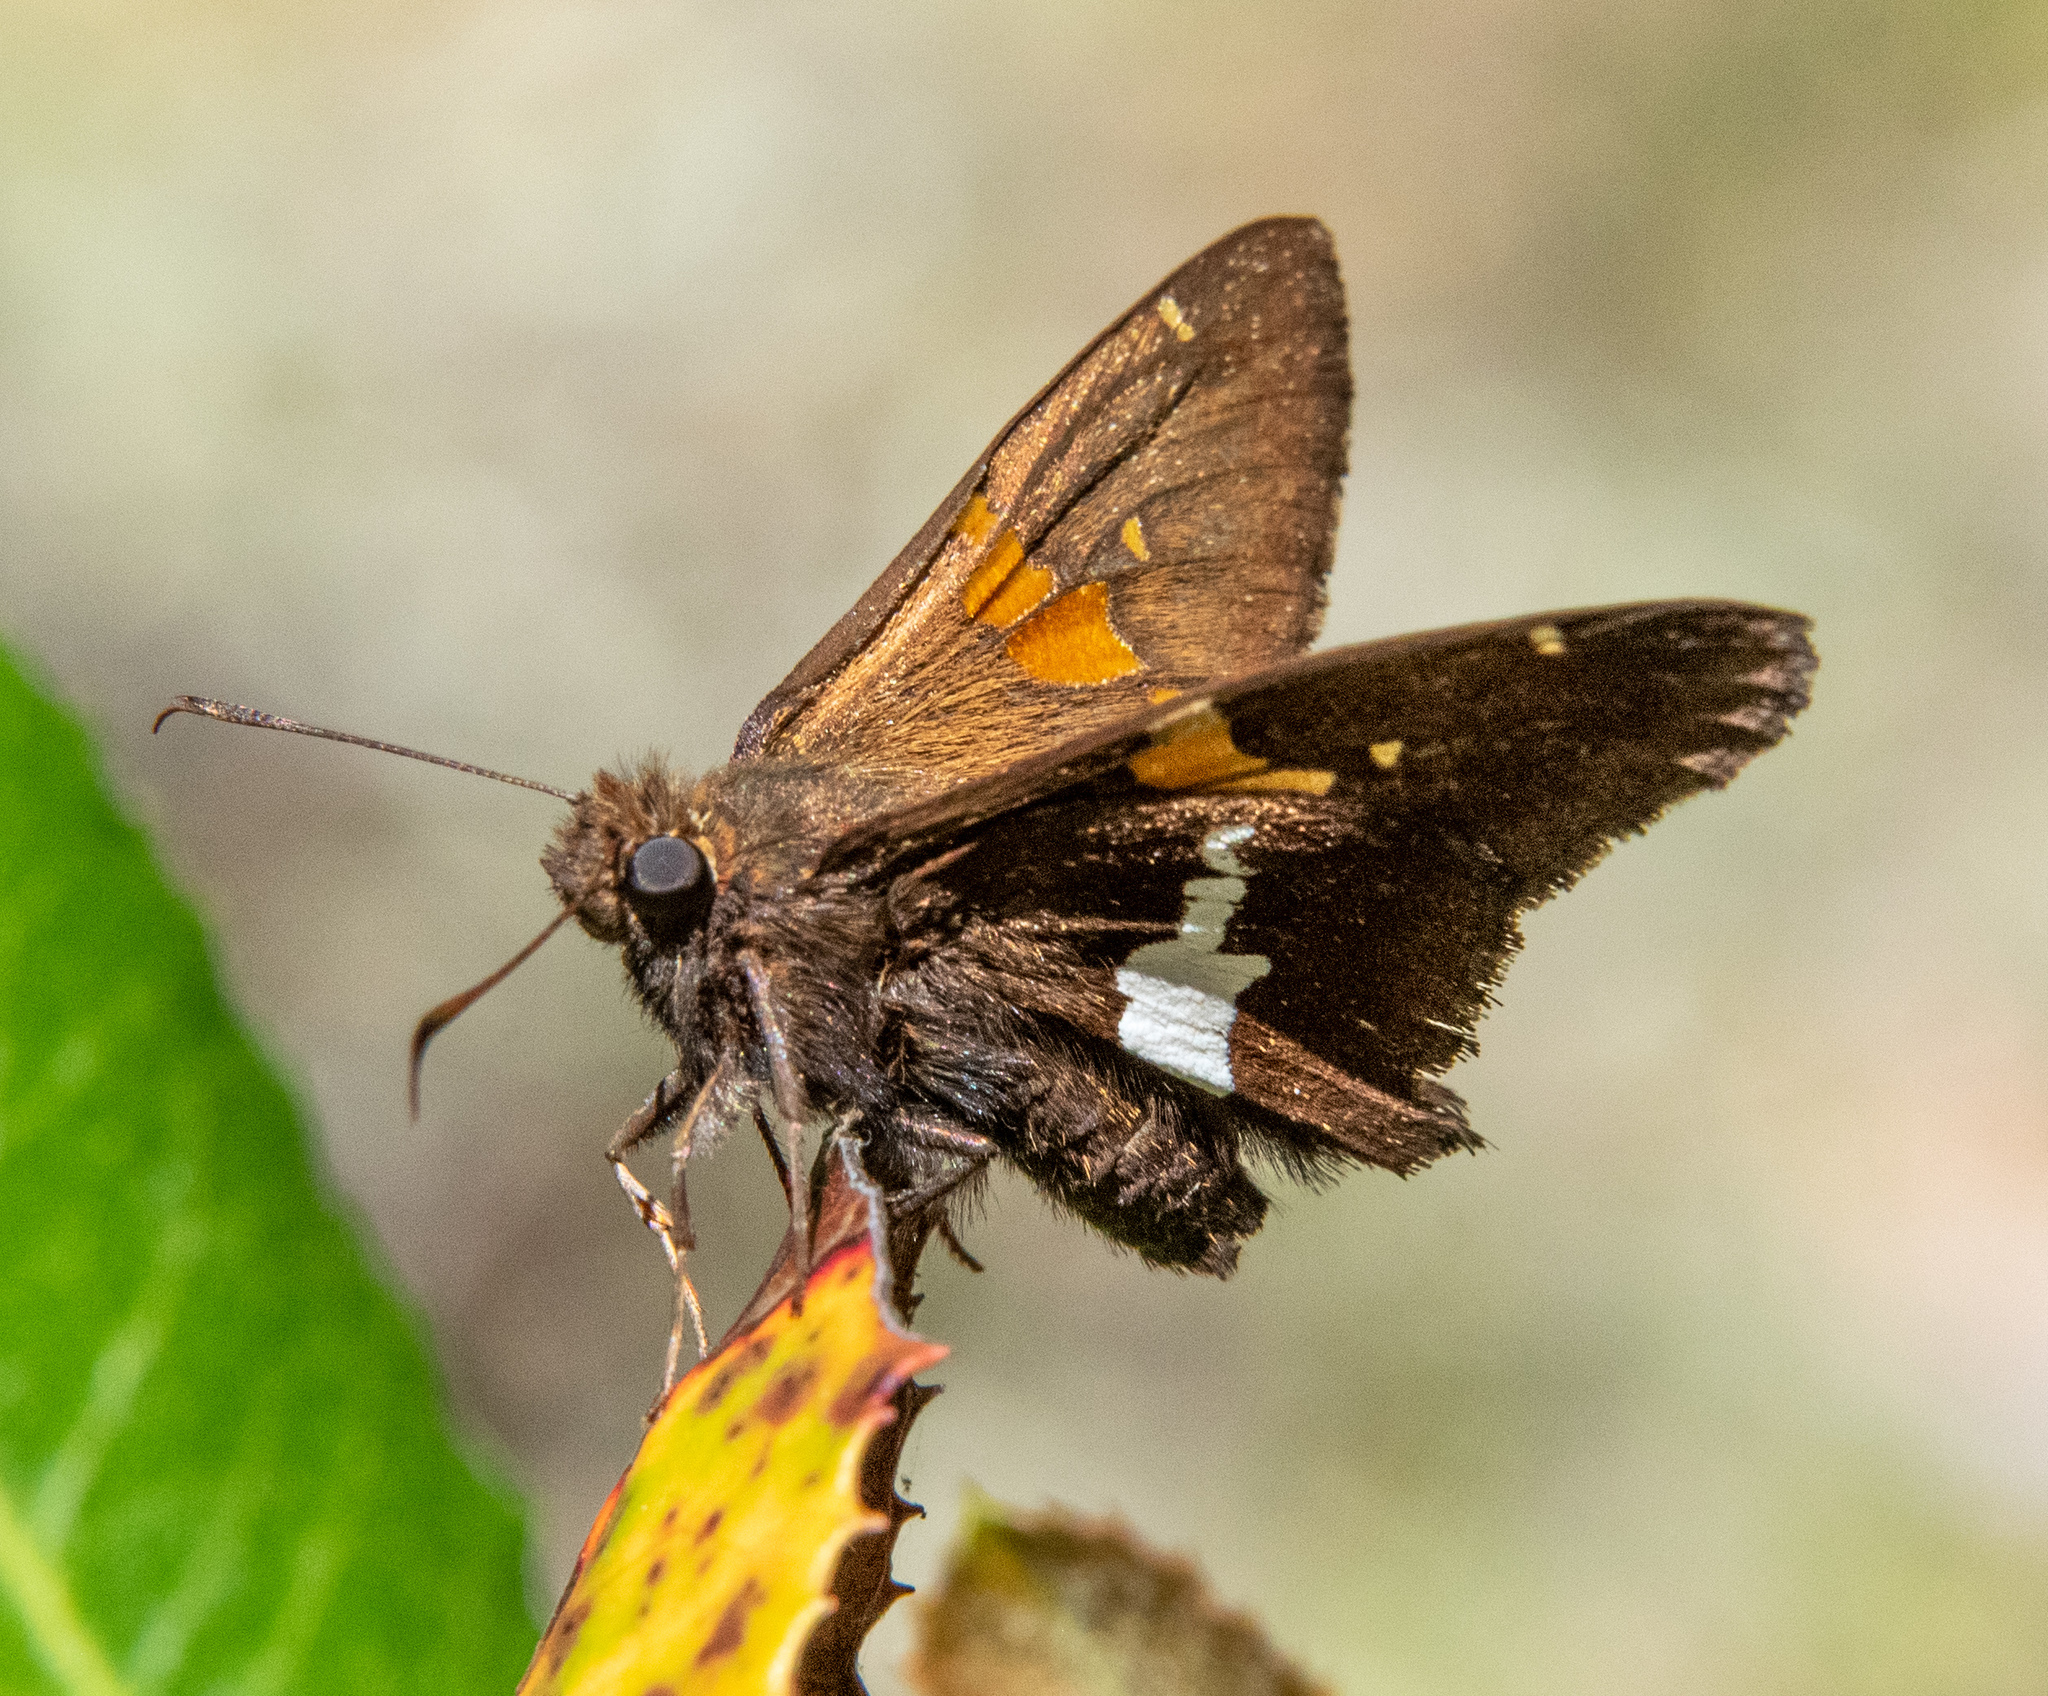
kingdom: Animalia
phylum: Arthropoda
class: Insecta
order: Lepidoptera
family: Hesperiidae
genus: Epargyreus
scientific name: Epargyreus clarus
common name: Silver-spotted skipper
